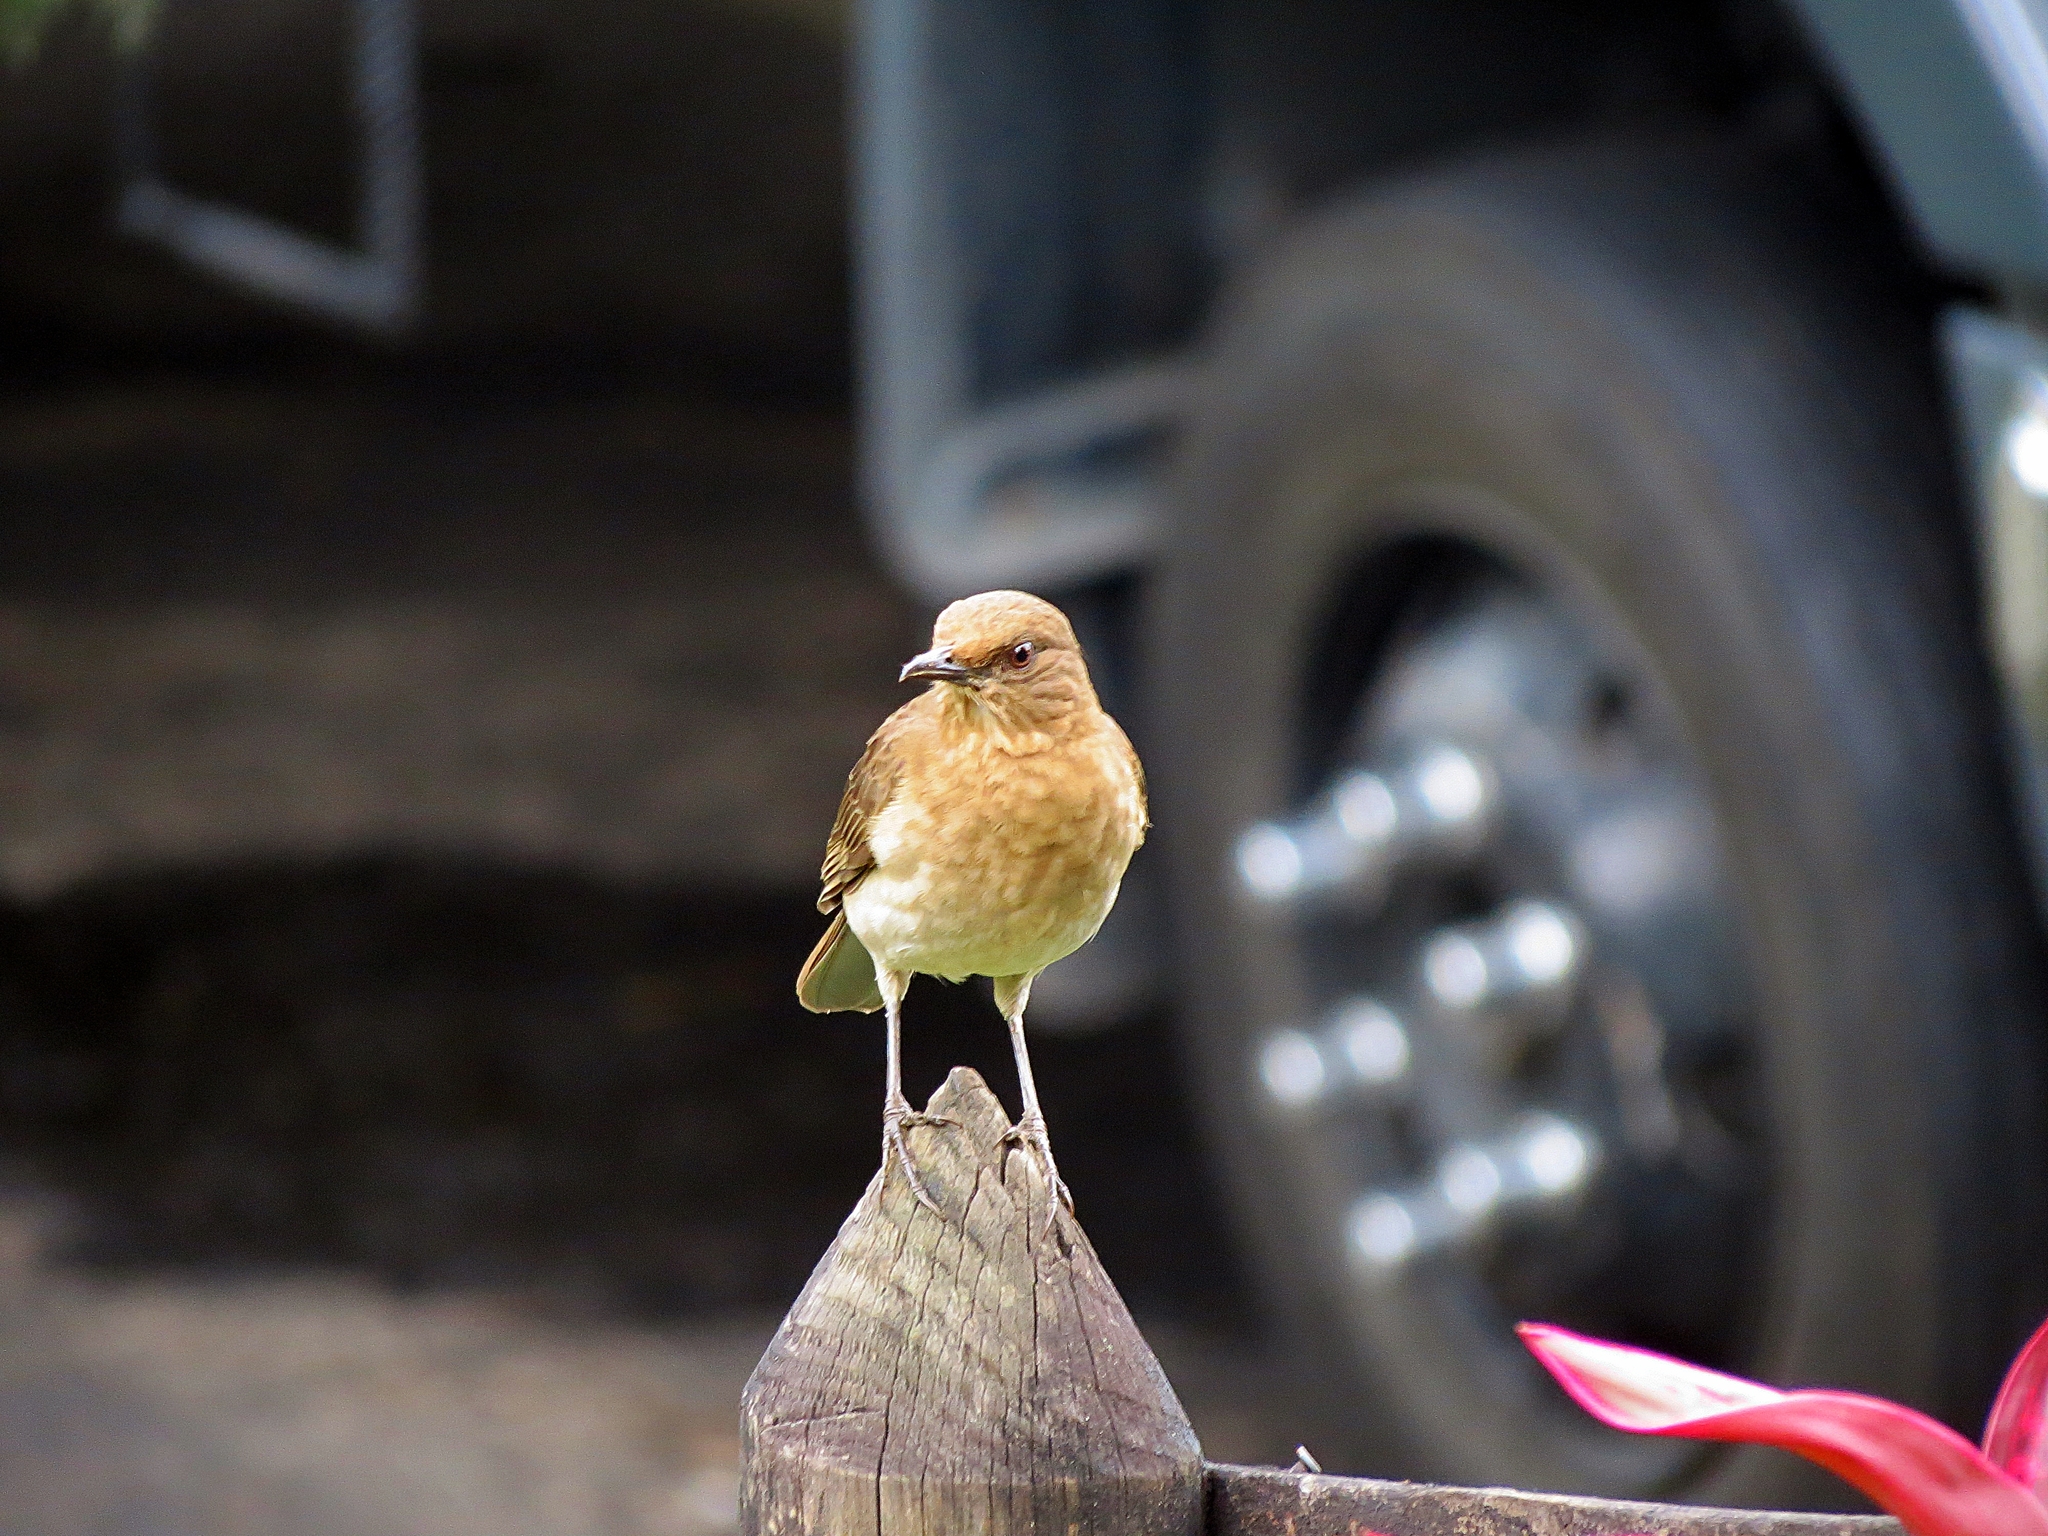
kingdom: Animalia
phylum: Chordata
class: Aves
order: Passeriformes
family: Turdidae
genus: Turdus
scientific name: Turdus ignobilis
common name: Black-billed thrush
